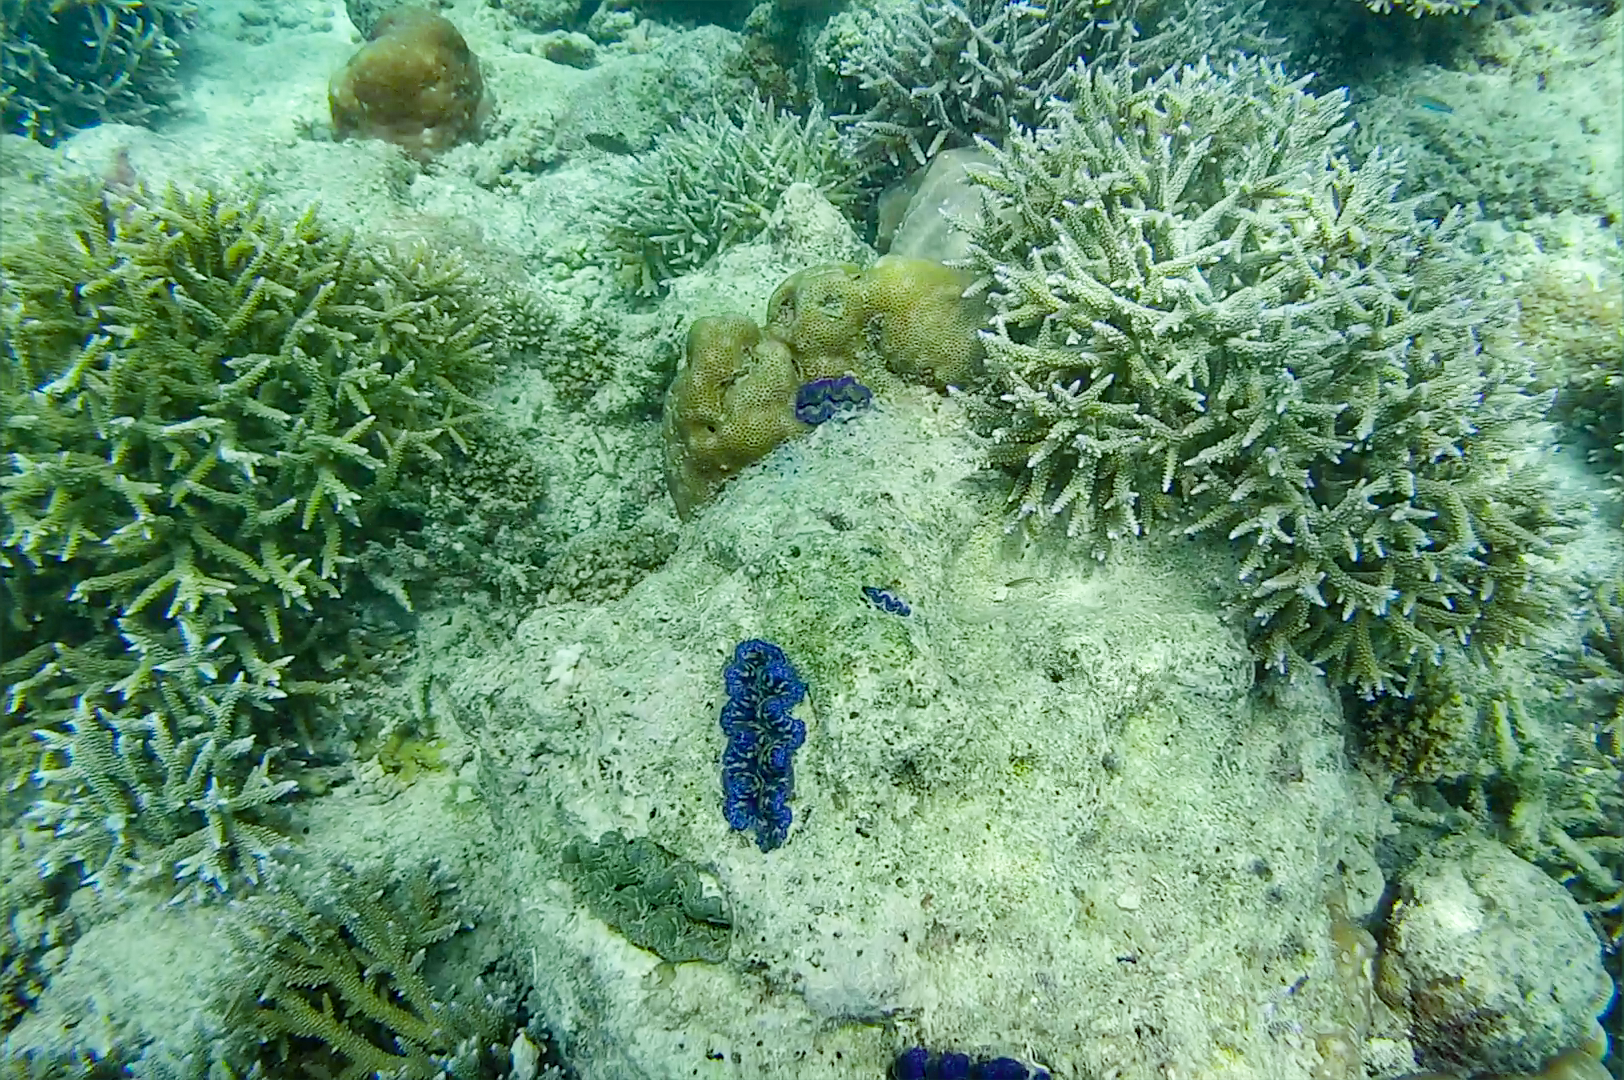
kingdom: Animalia
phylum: Mollusca
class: Bivalvia
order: Cardiida
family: Cardiidae
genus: Tridacna
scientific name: Tridacna crocea
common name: Boring clam
